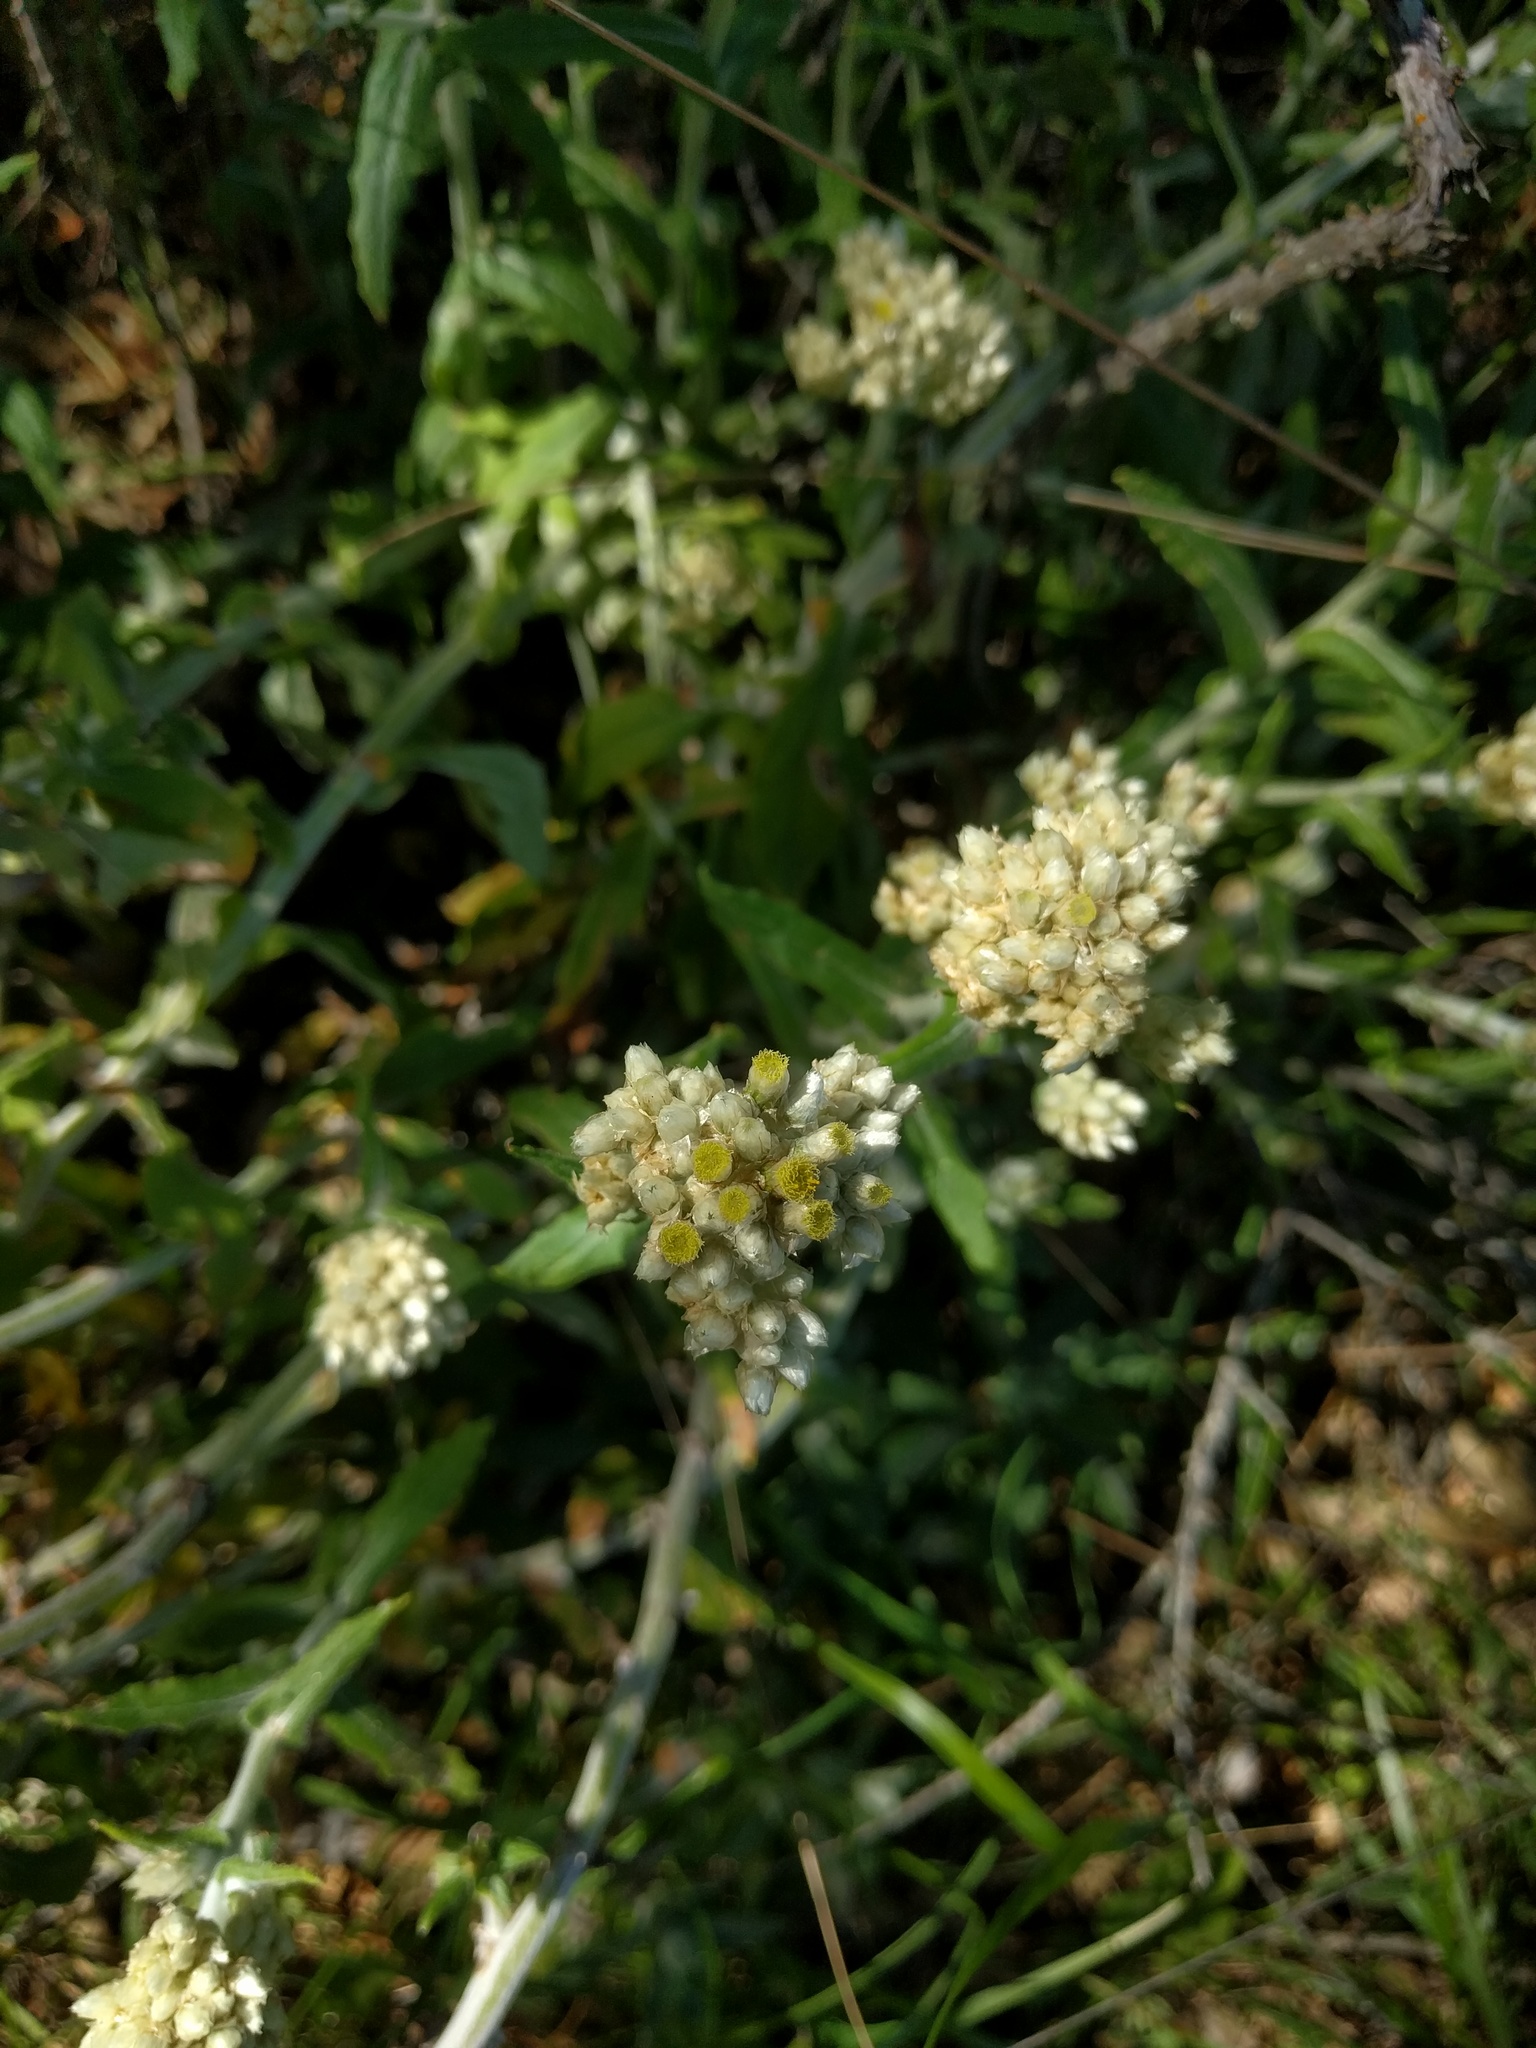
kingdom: Plantae
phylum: Tracheophyta
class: Magnoliopsida
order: Asterales
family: Asteraceae
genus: Pseudognaphalium
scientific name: Pseudognaphalium biolettii
